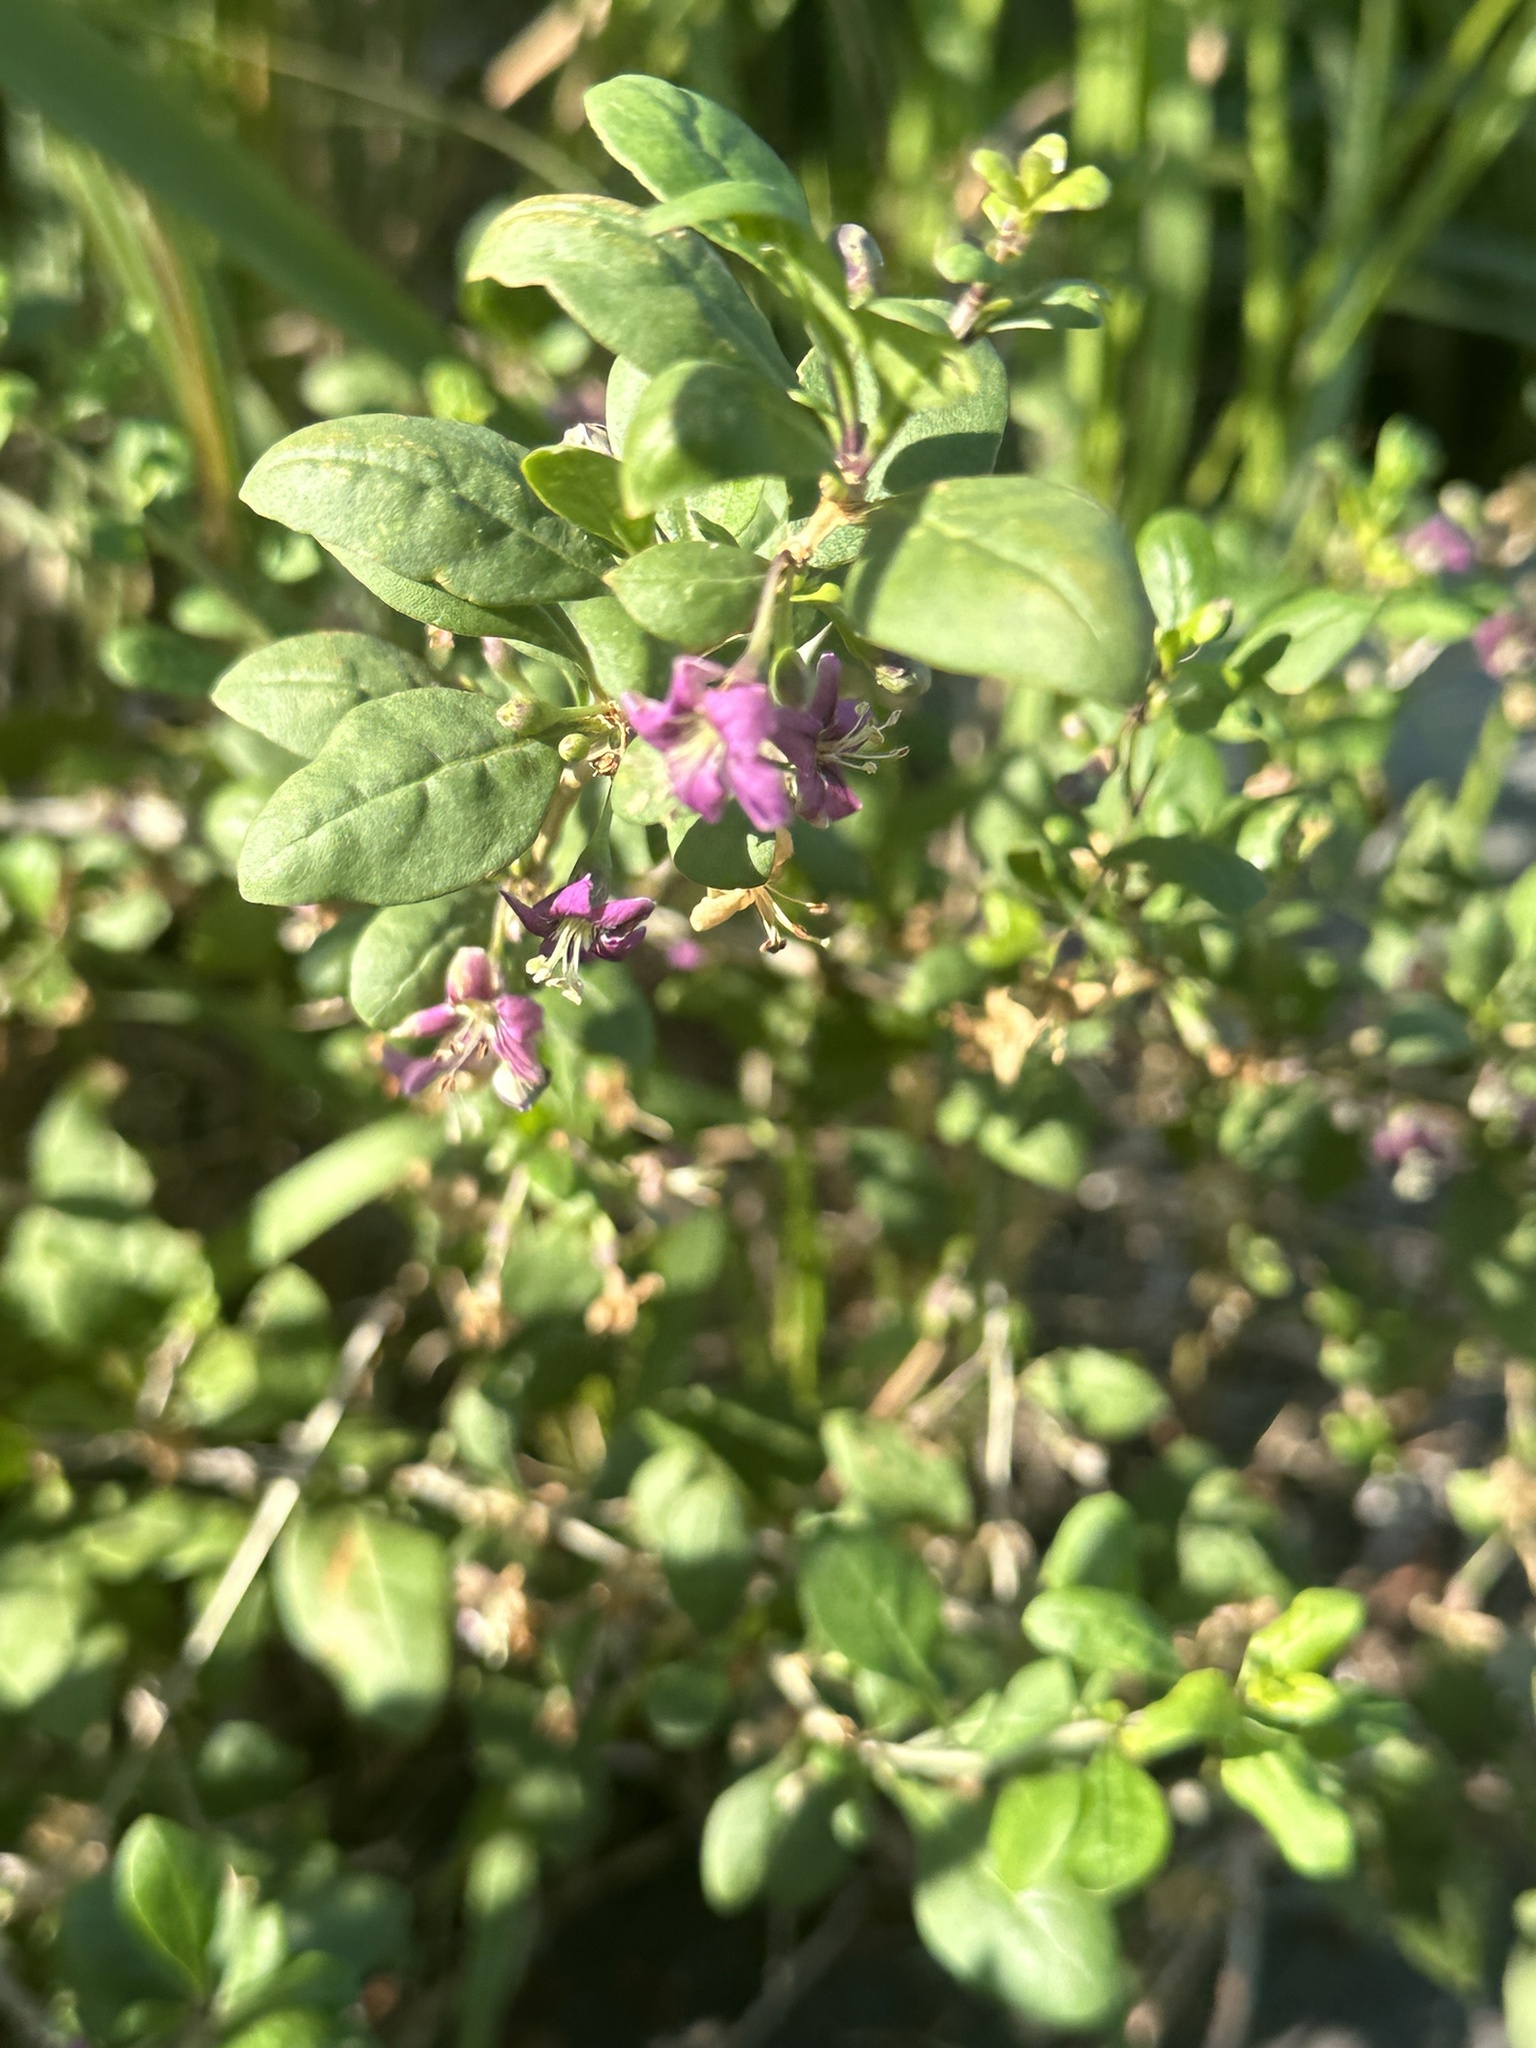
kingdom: Plantae
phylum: Tracheophyta
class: Magnoliopsida
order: Solanales
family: Solanaceae
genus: Lycium
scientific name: Lycium chinense
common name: Chinese teaplant
